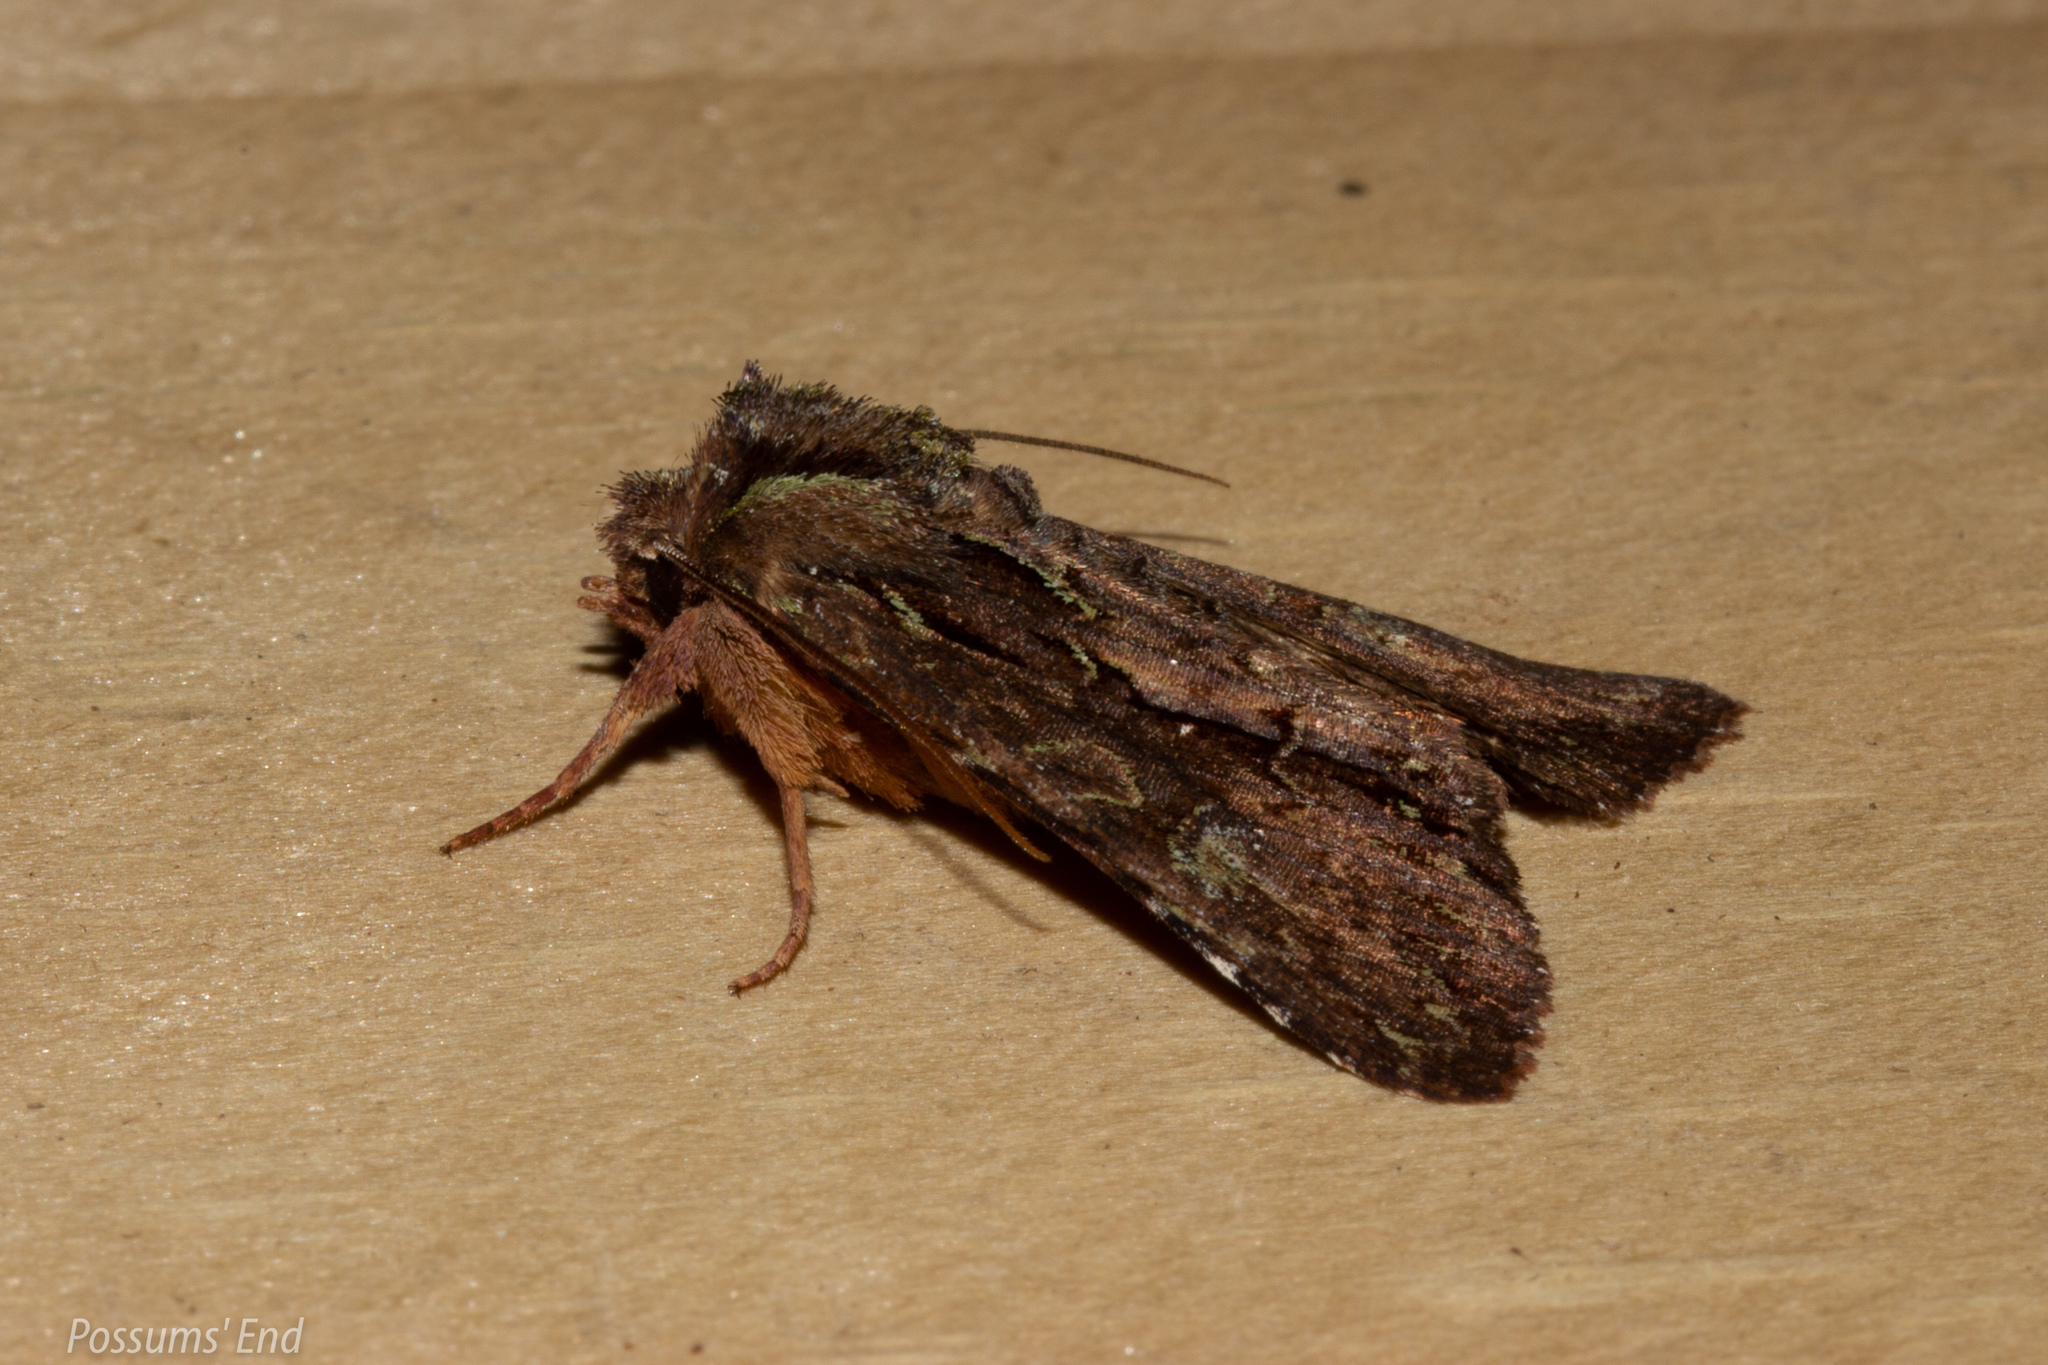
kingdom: Animalia
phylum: Arthropoda
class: Insecta
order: Lepidoptera
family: Noctuidae
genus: Meterana
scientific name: Meterana diatmeta
